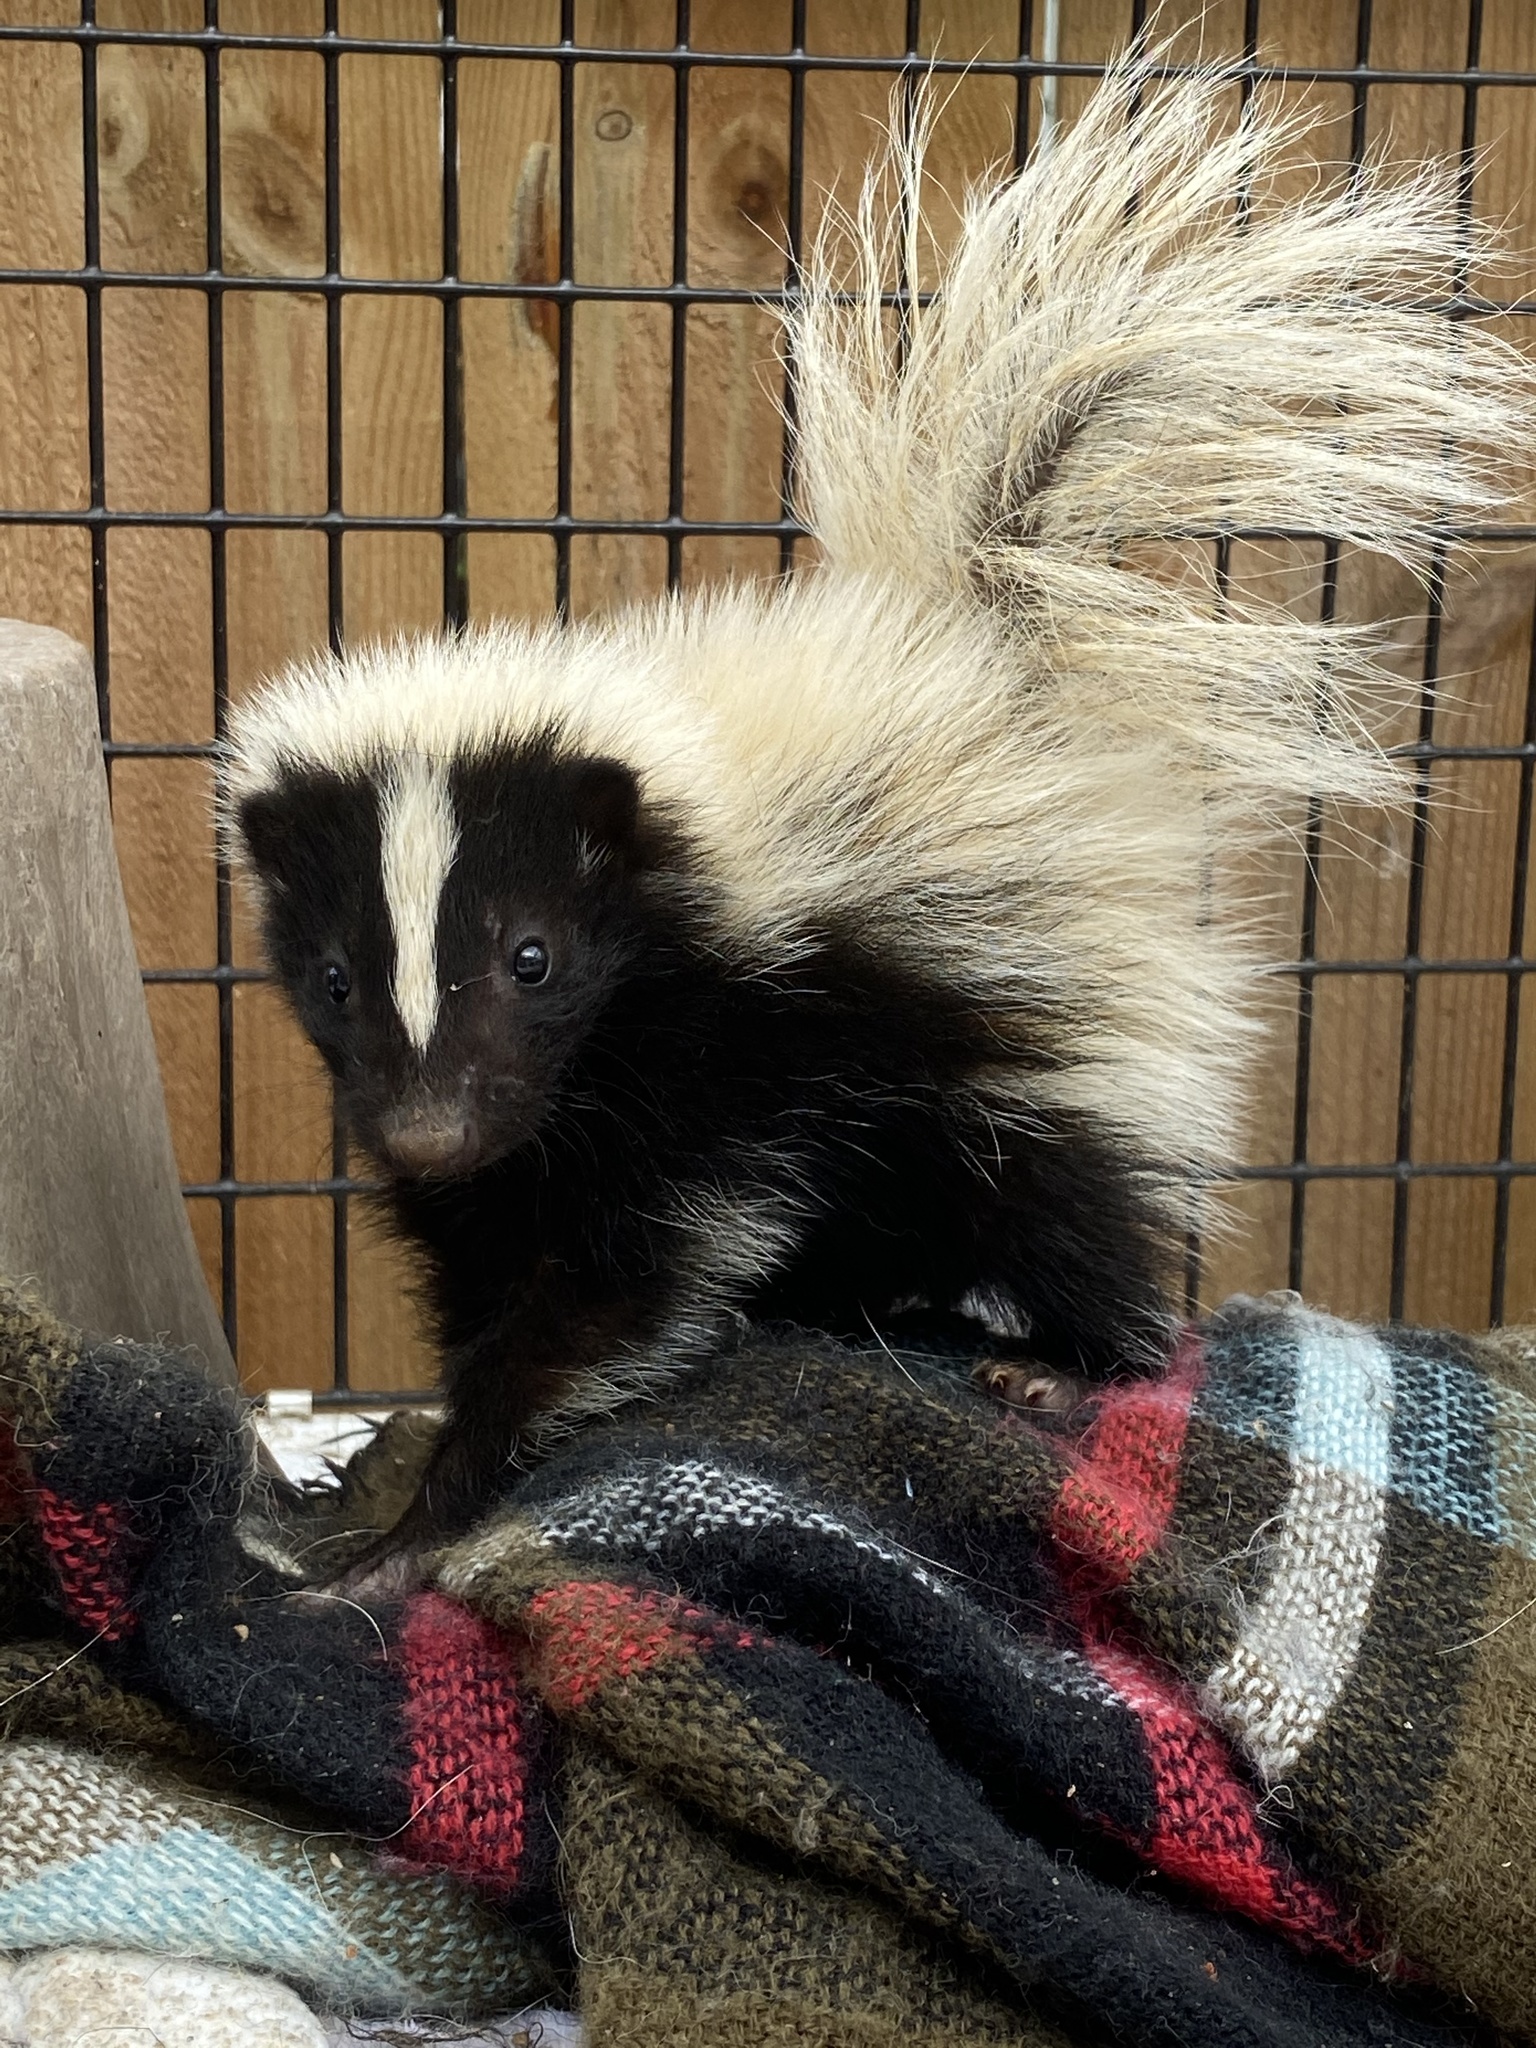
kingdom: Animalia
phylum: Chordata
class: Mammalia
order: Carnivora
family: Mephitidae
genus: Mephitis
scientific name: Mephitis mephitis
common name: Striped skunk
